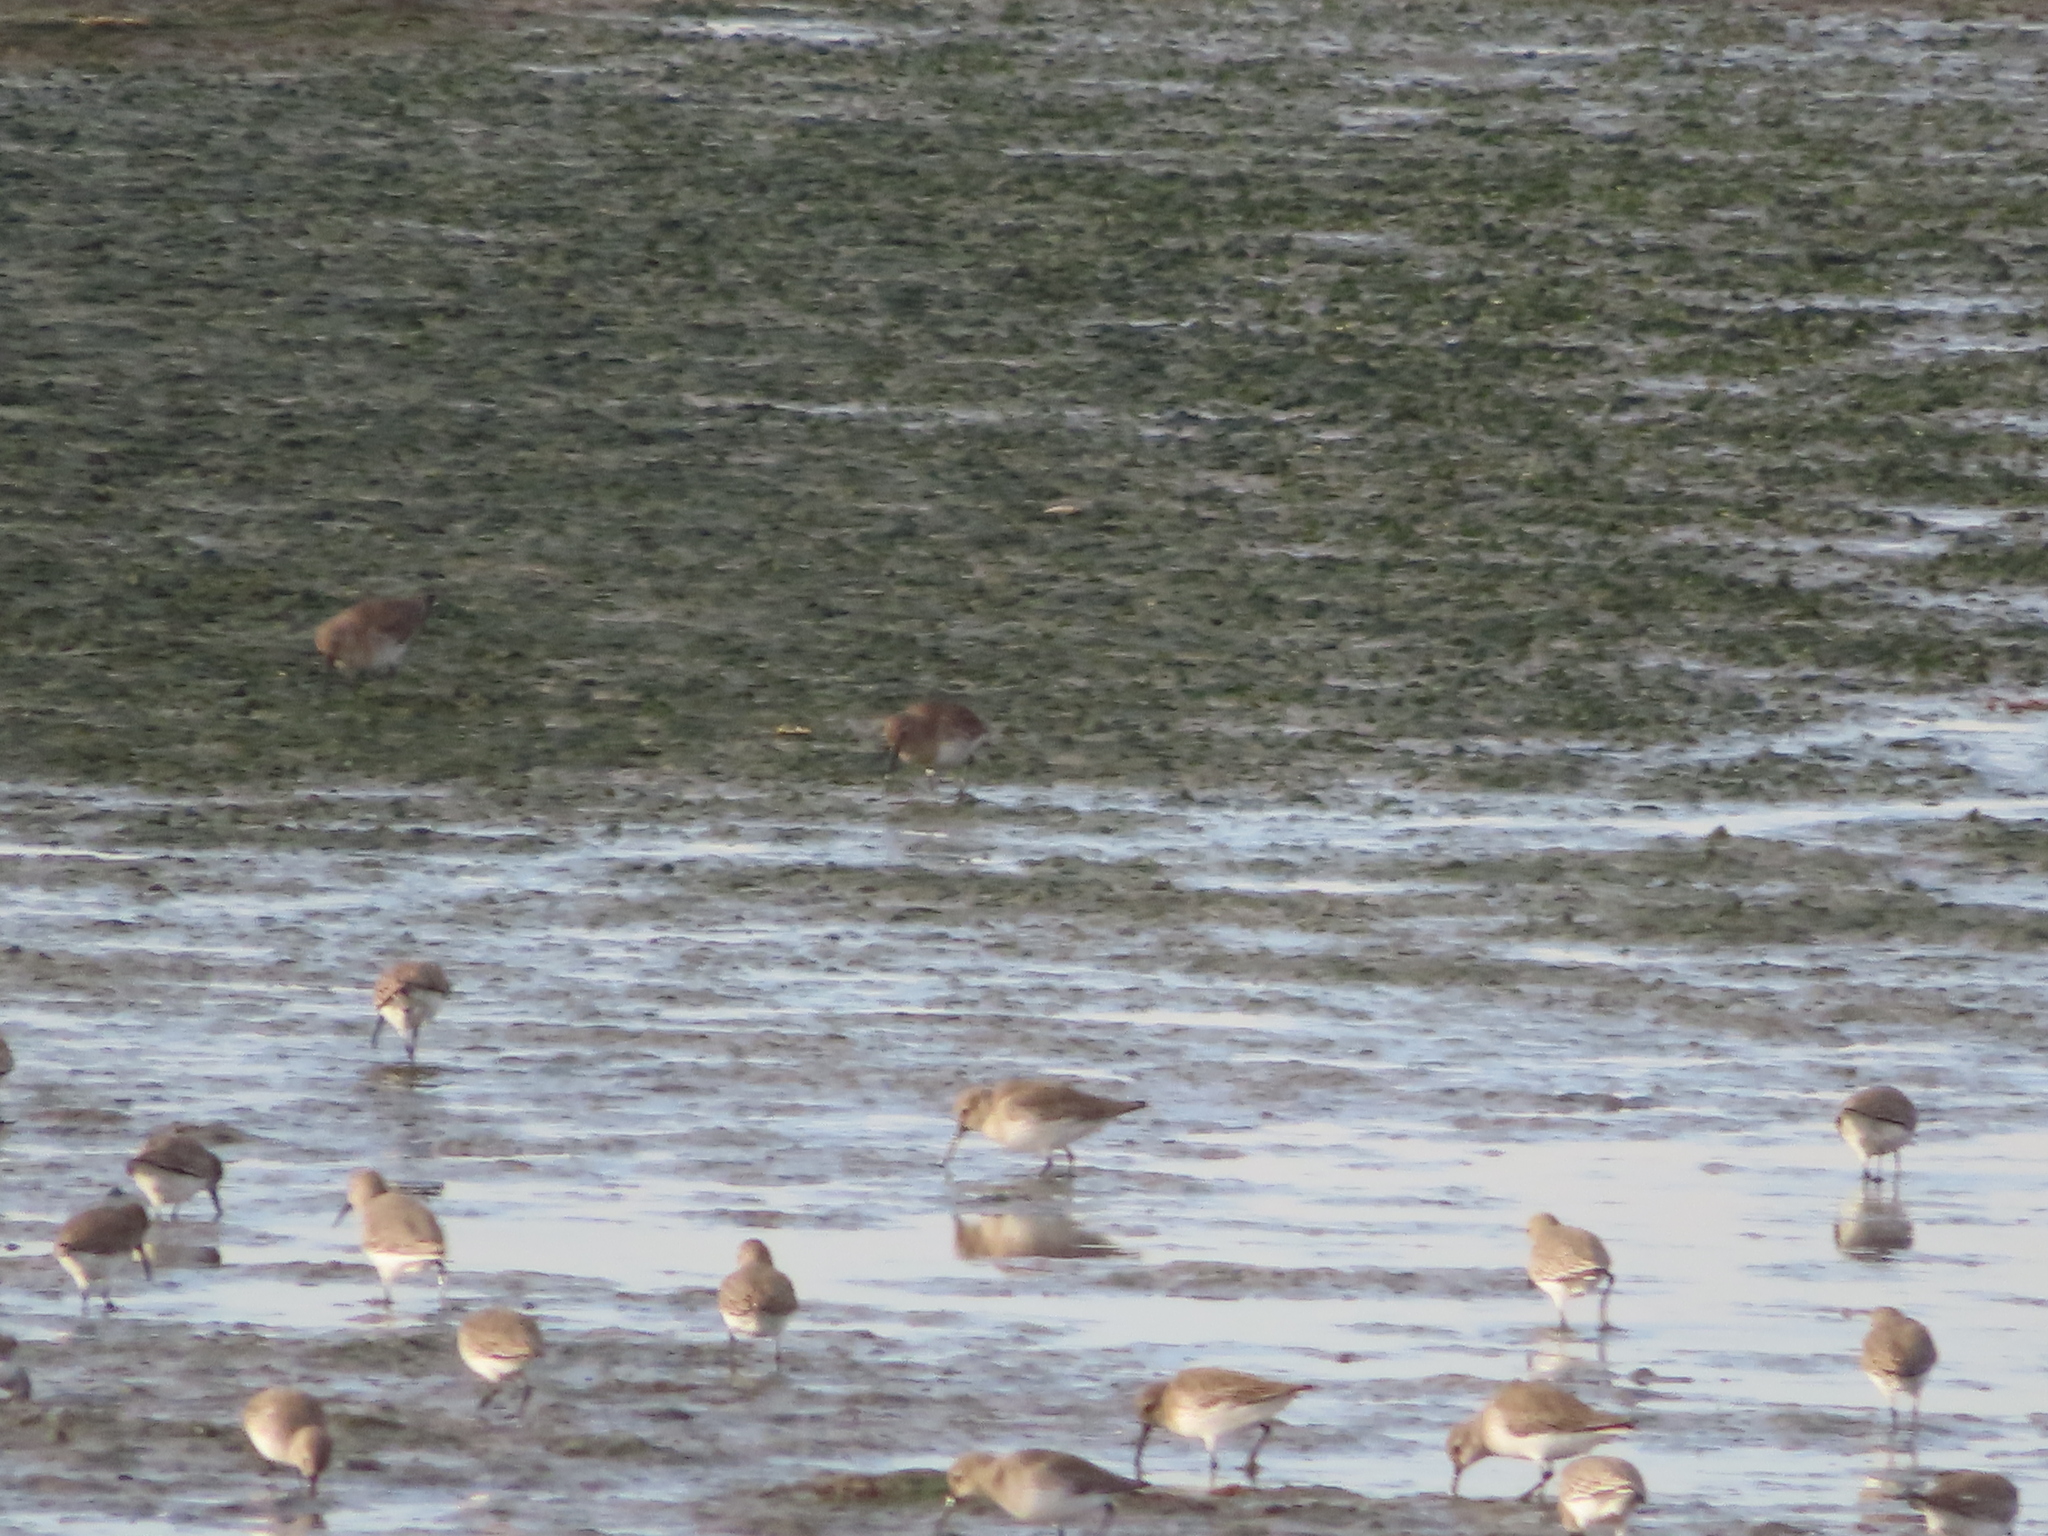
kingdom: Animalia
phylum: Chordata
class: Aves
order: Charadriiformes
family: Scolopacidae
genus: Calidris
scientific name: Calidris alpina
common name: Dunlin
